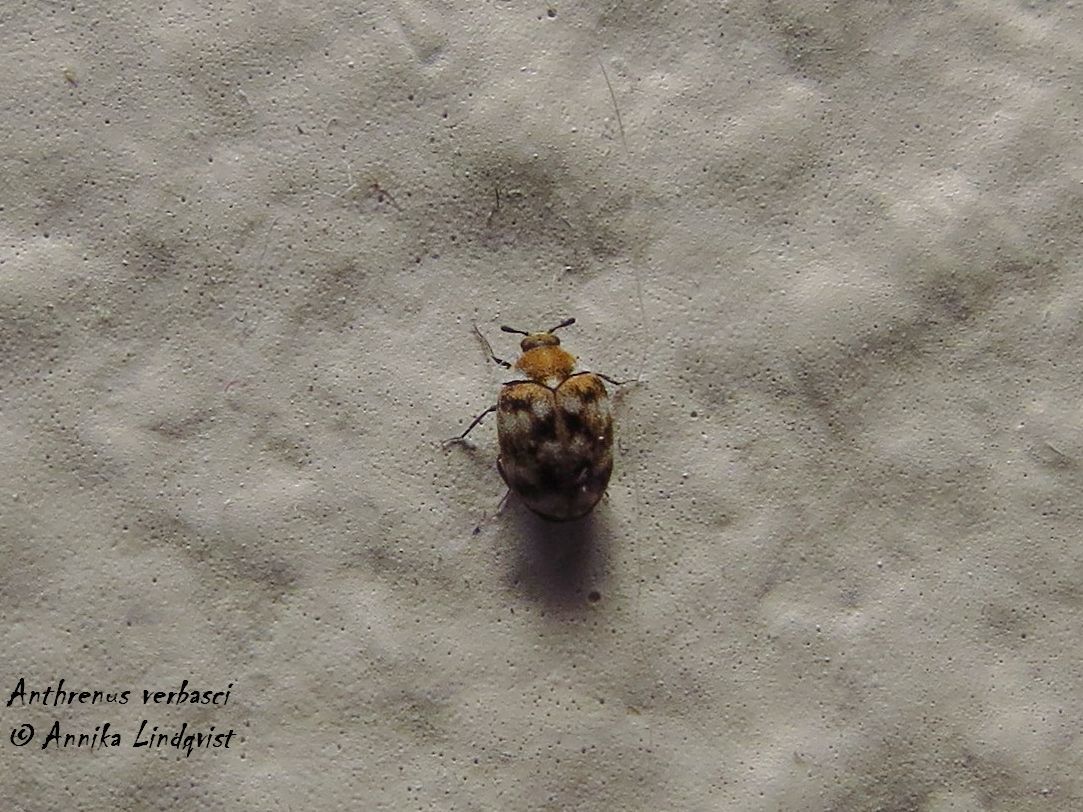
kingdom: Animalia
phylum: Arthropoda
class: Insecta
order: Coleoptera
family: Dermestidae
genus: Anthrenus
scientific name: Anthrenus verbasci
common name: Varied carpet beetle
